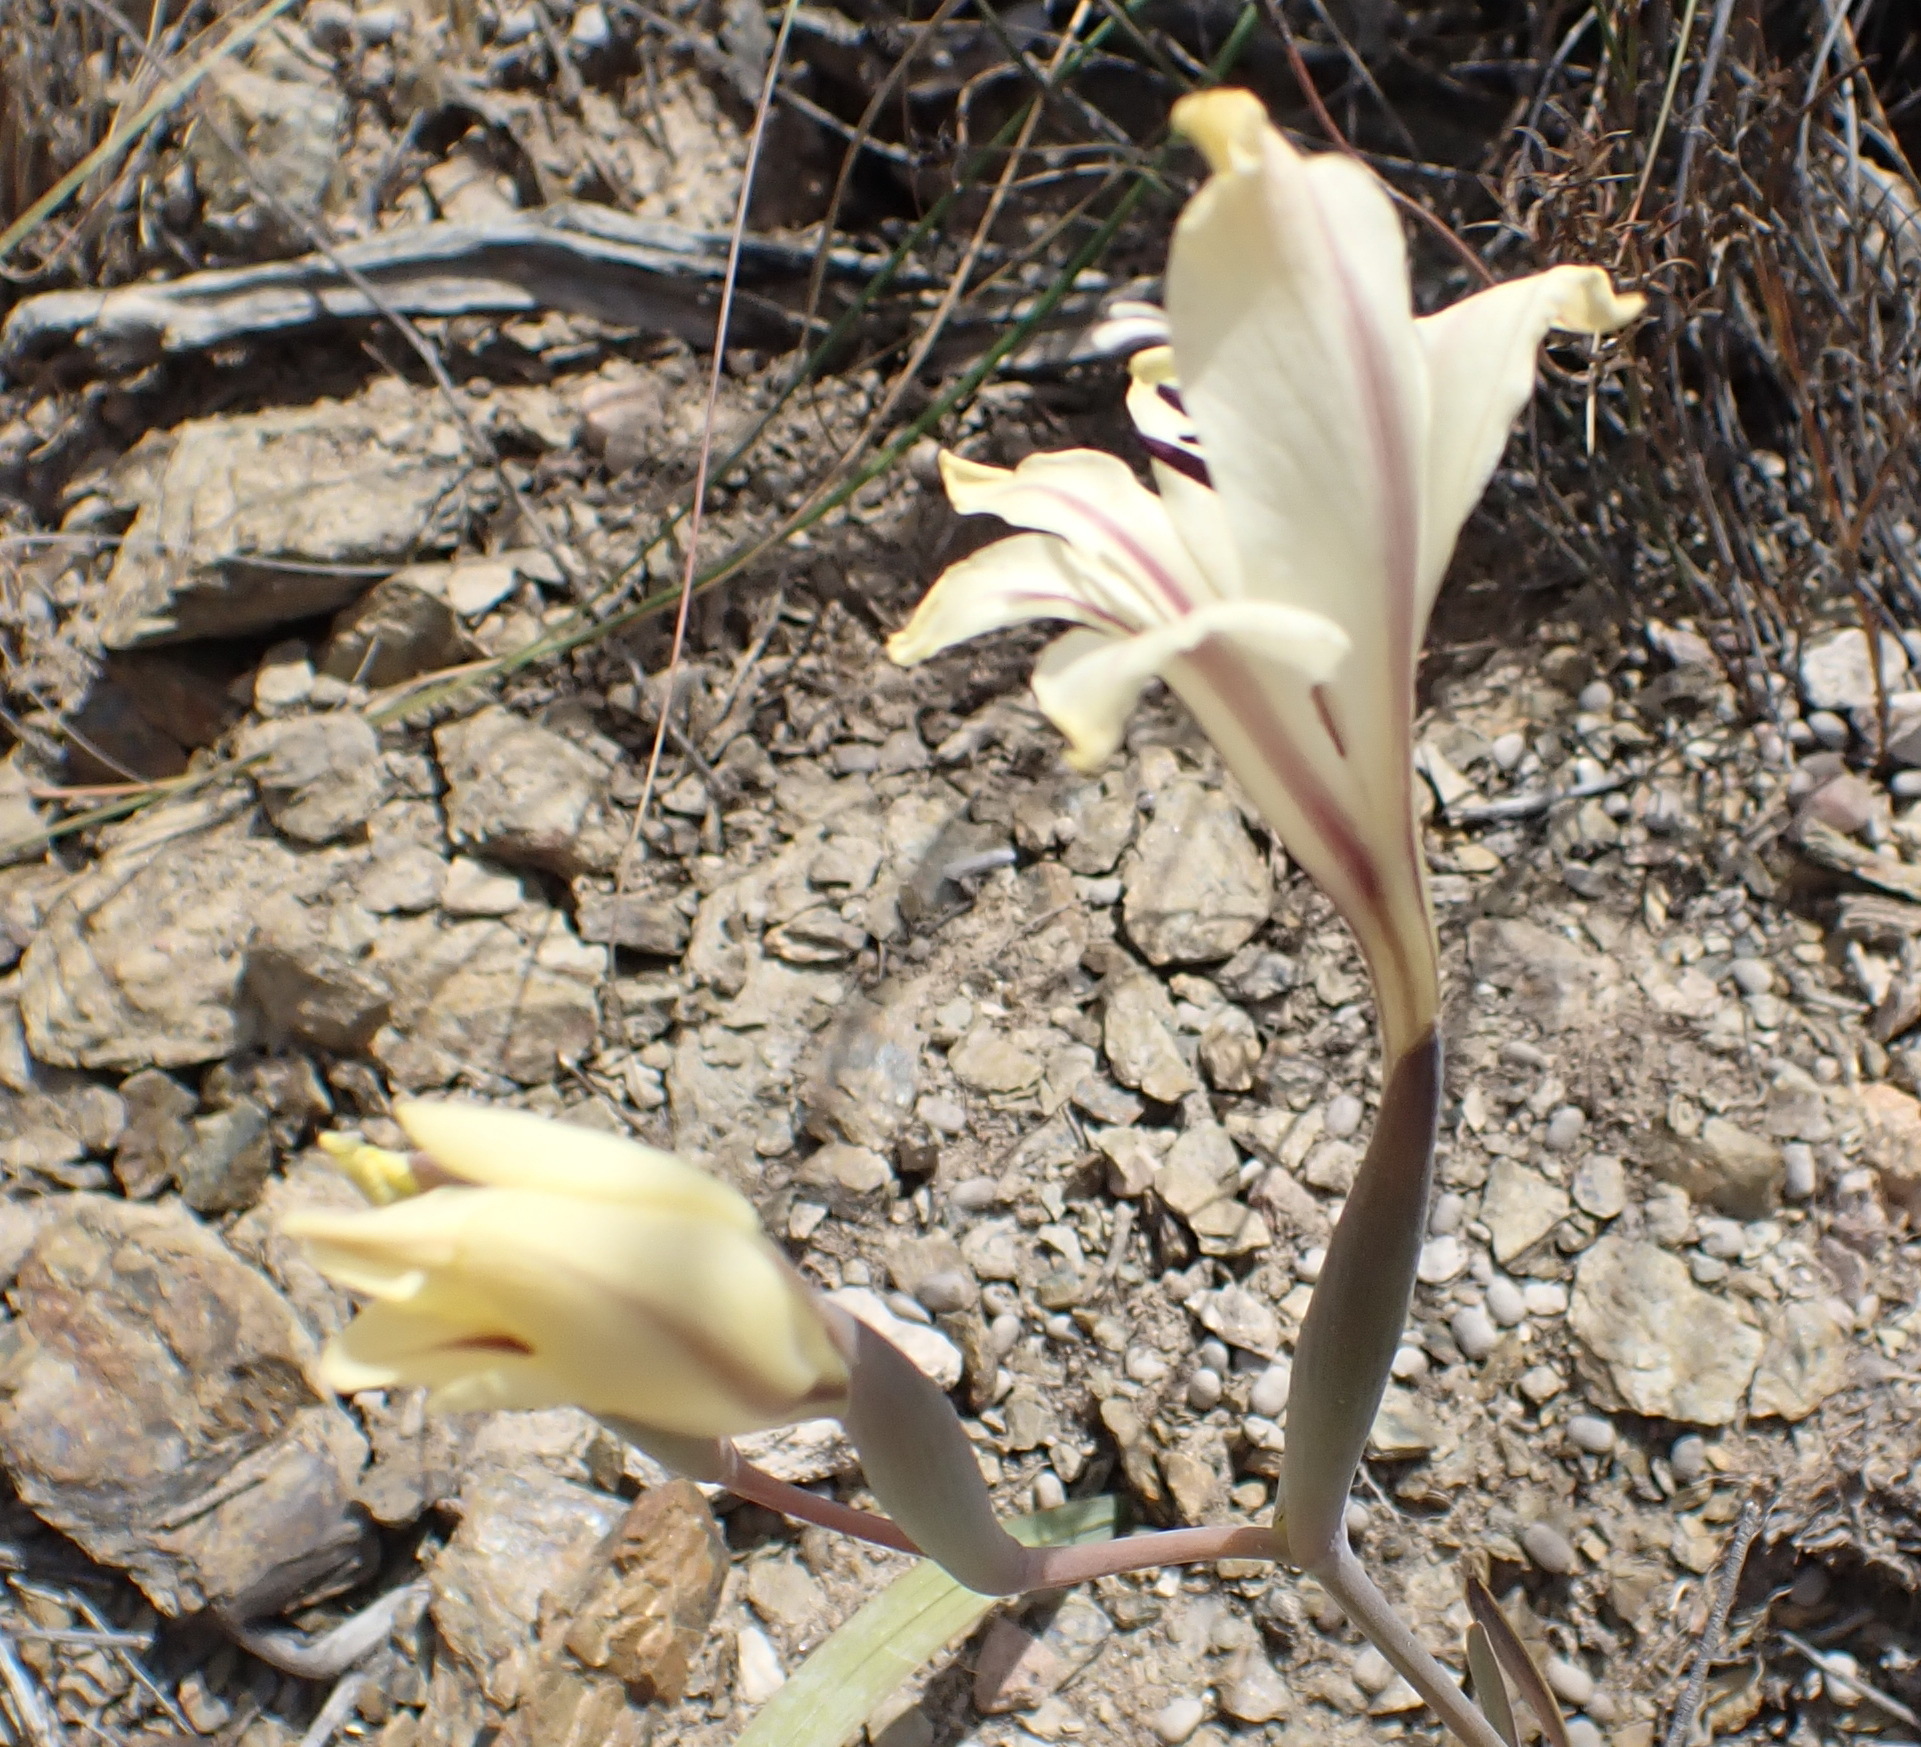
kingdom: Plantae
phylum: Tracheophyta
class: Liliopsida
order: Asparagales
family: Iridaceae
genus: Gladiolus
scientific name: Gladiolus floribundus
